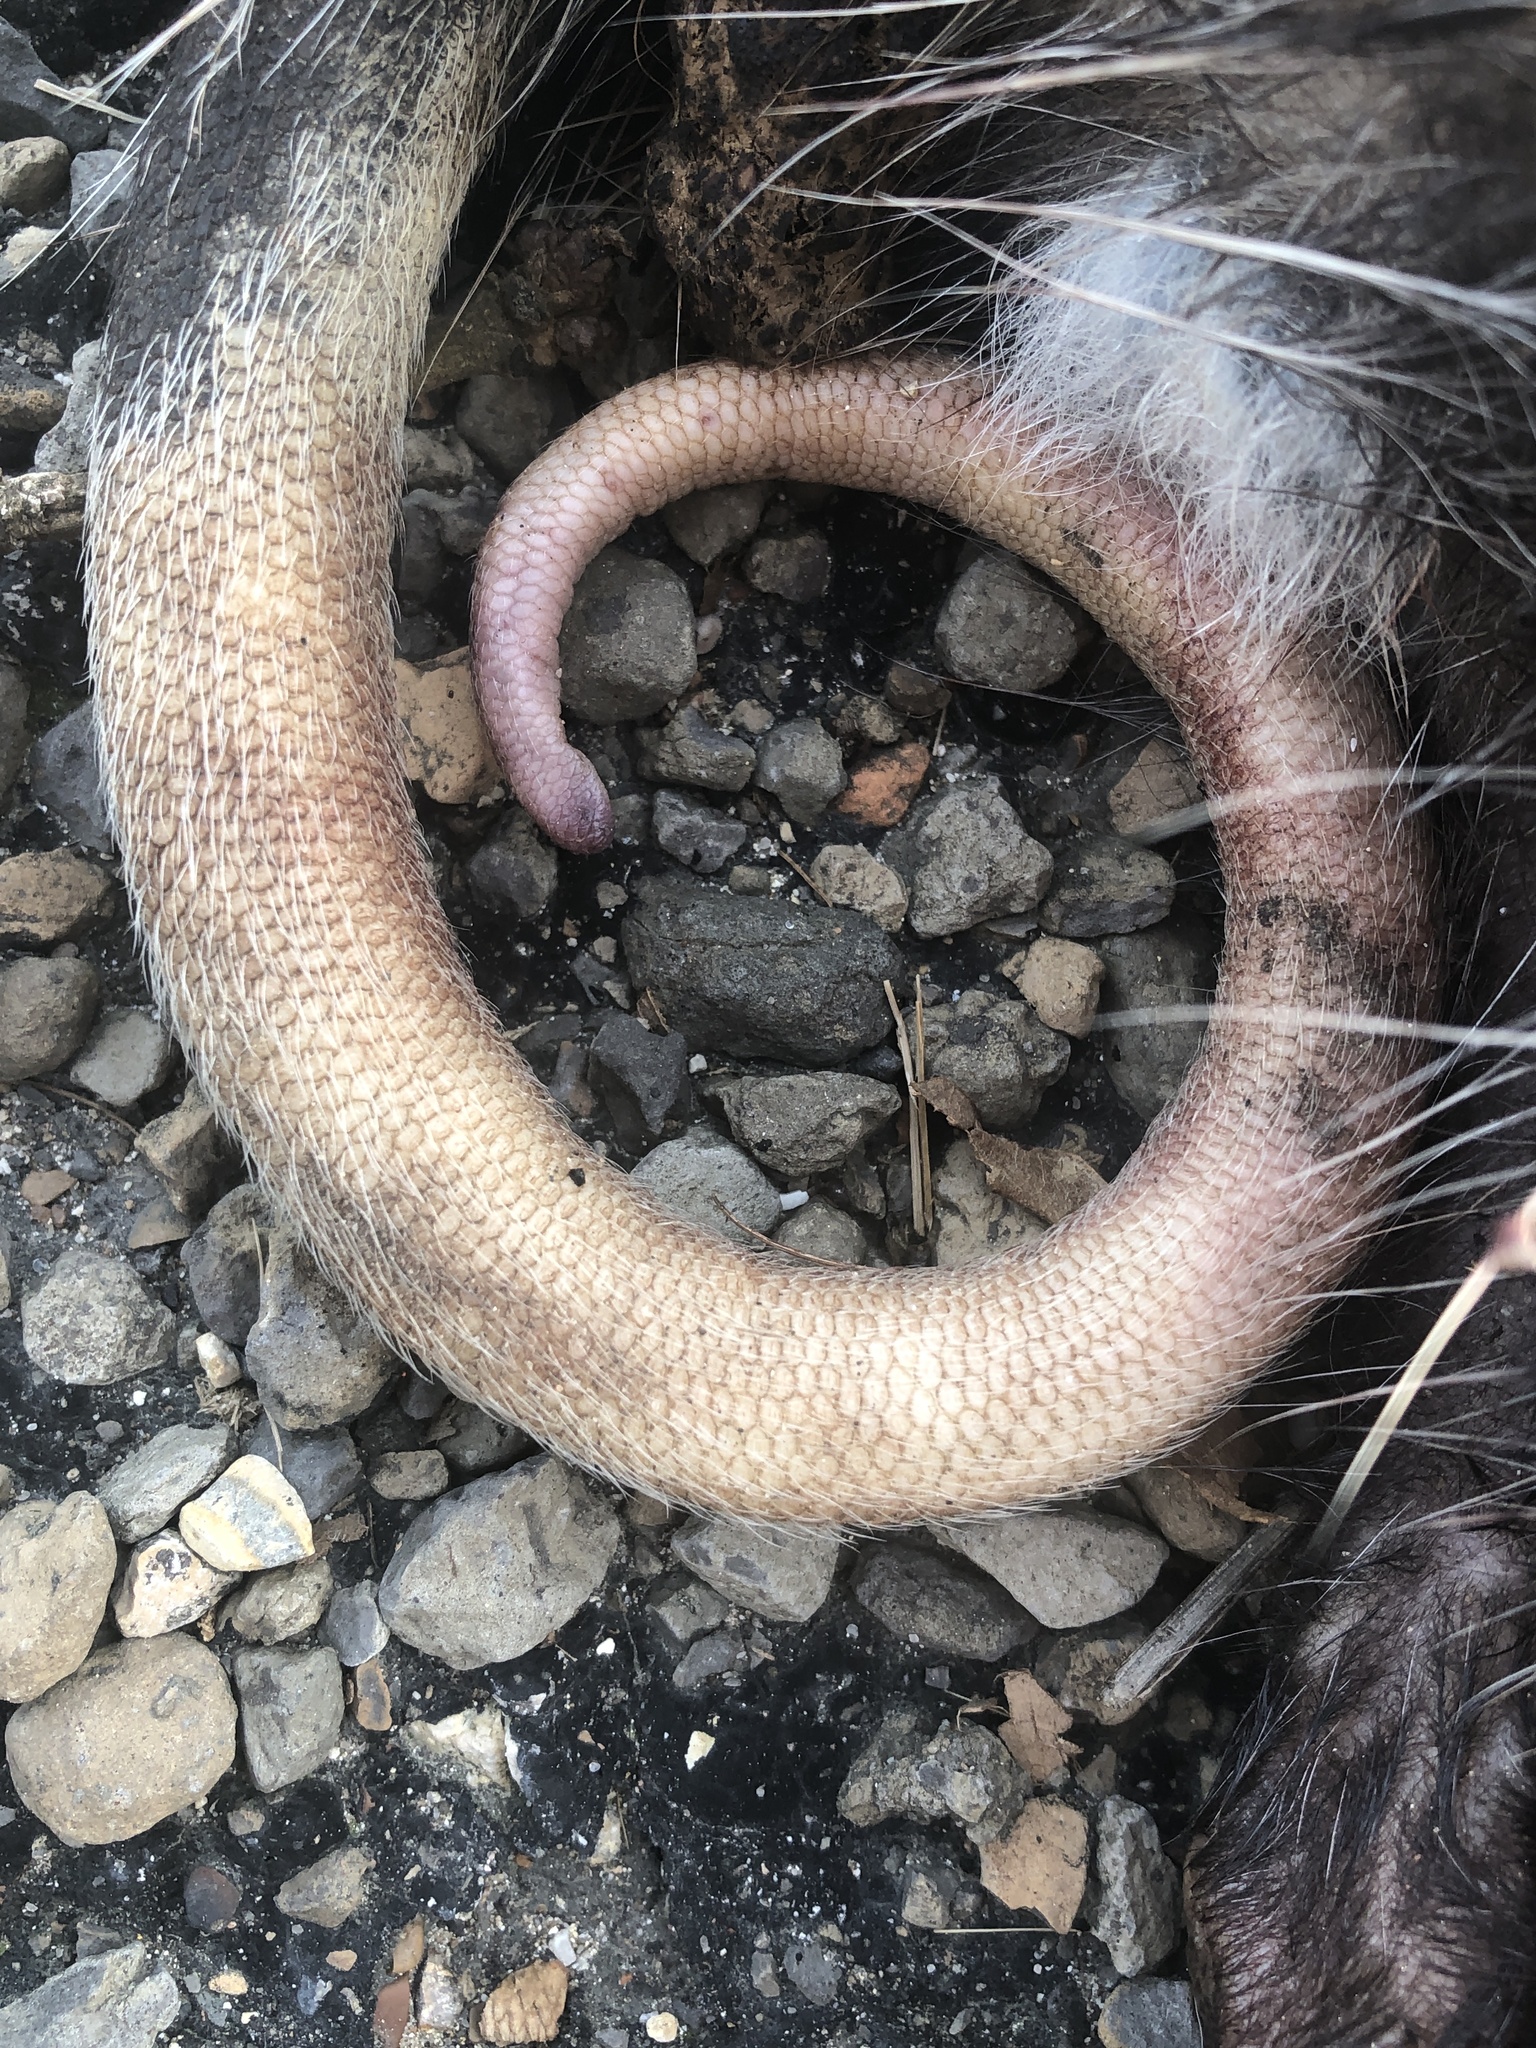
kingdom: Animalia
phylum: Chordata
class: Mammalia
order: Didelphimorphia
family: Didelphidae
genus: Didelphis
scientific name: Didelphis virginiana
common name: Virginia opossum
